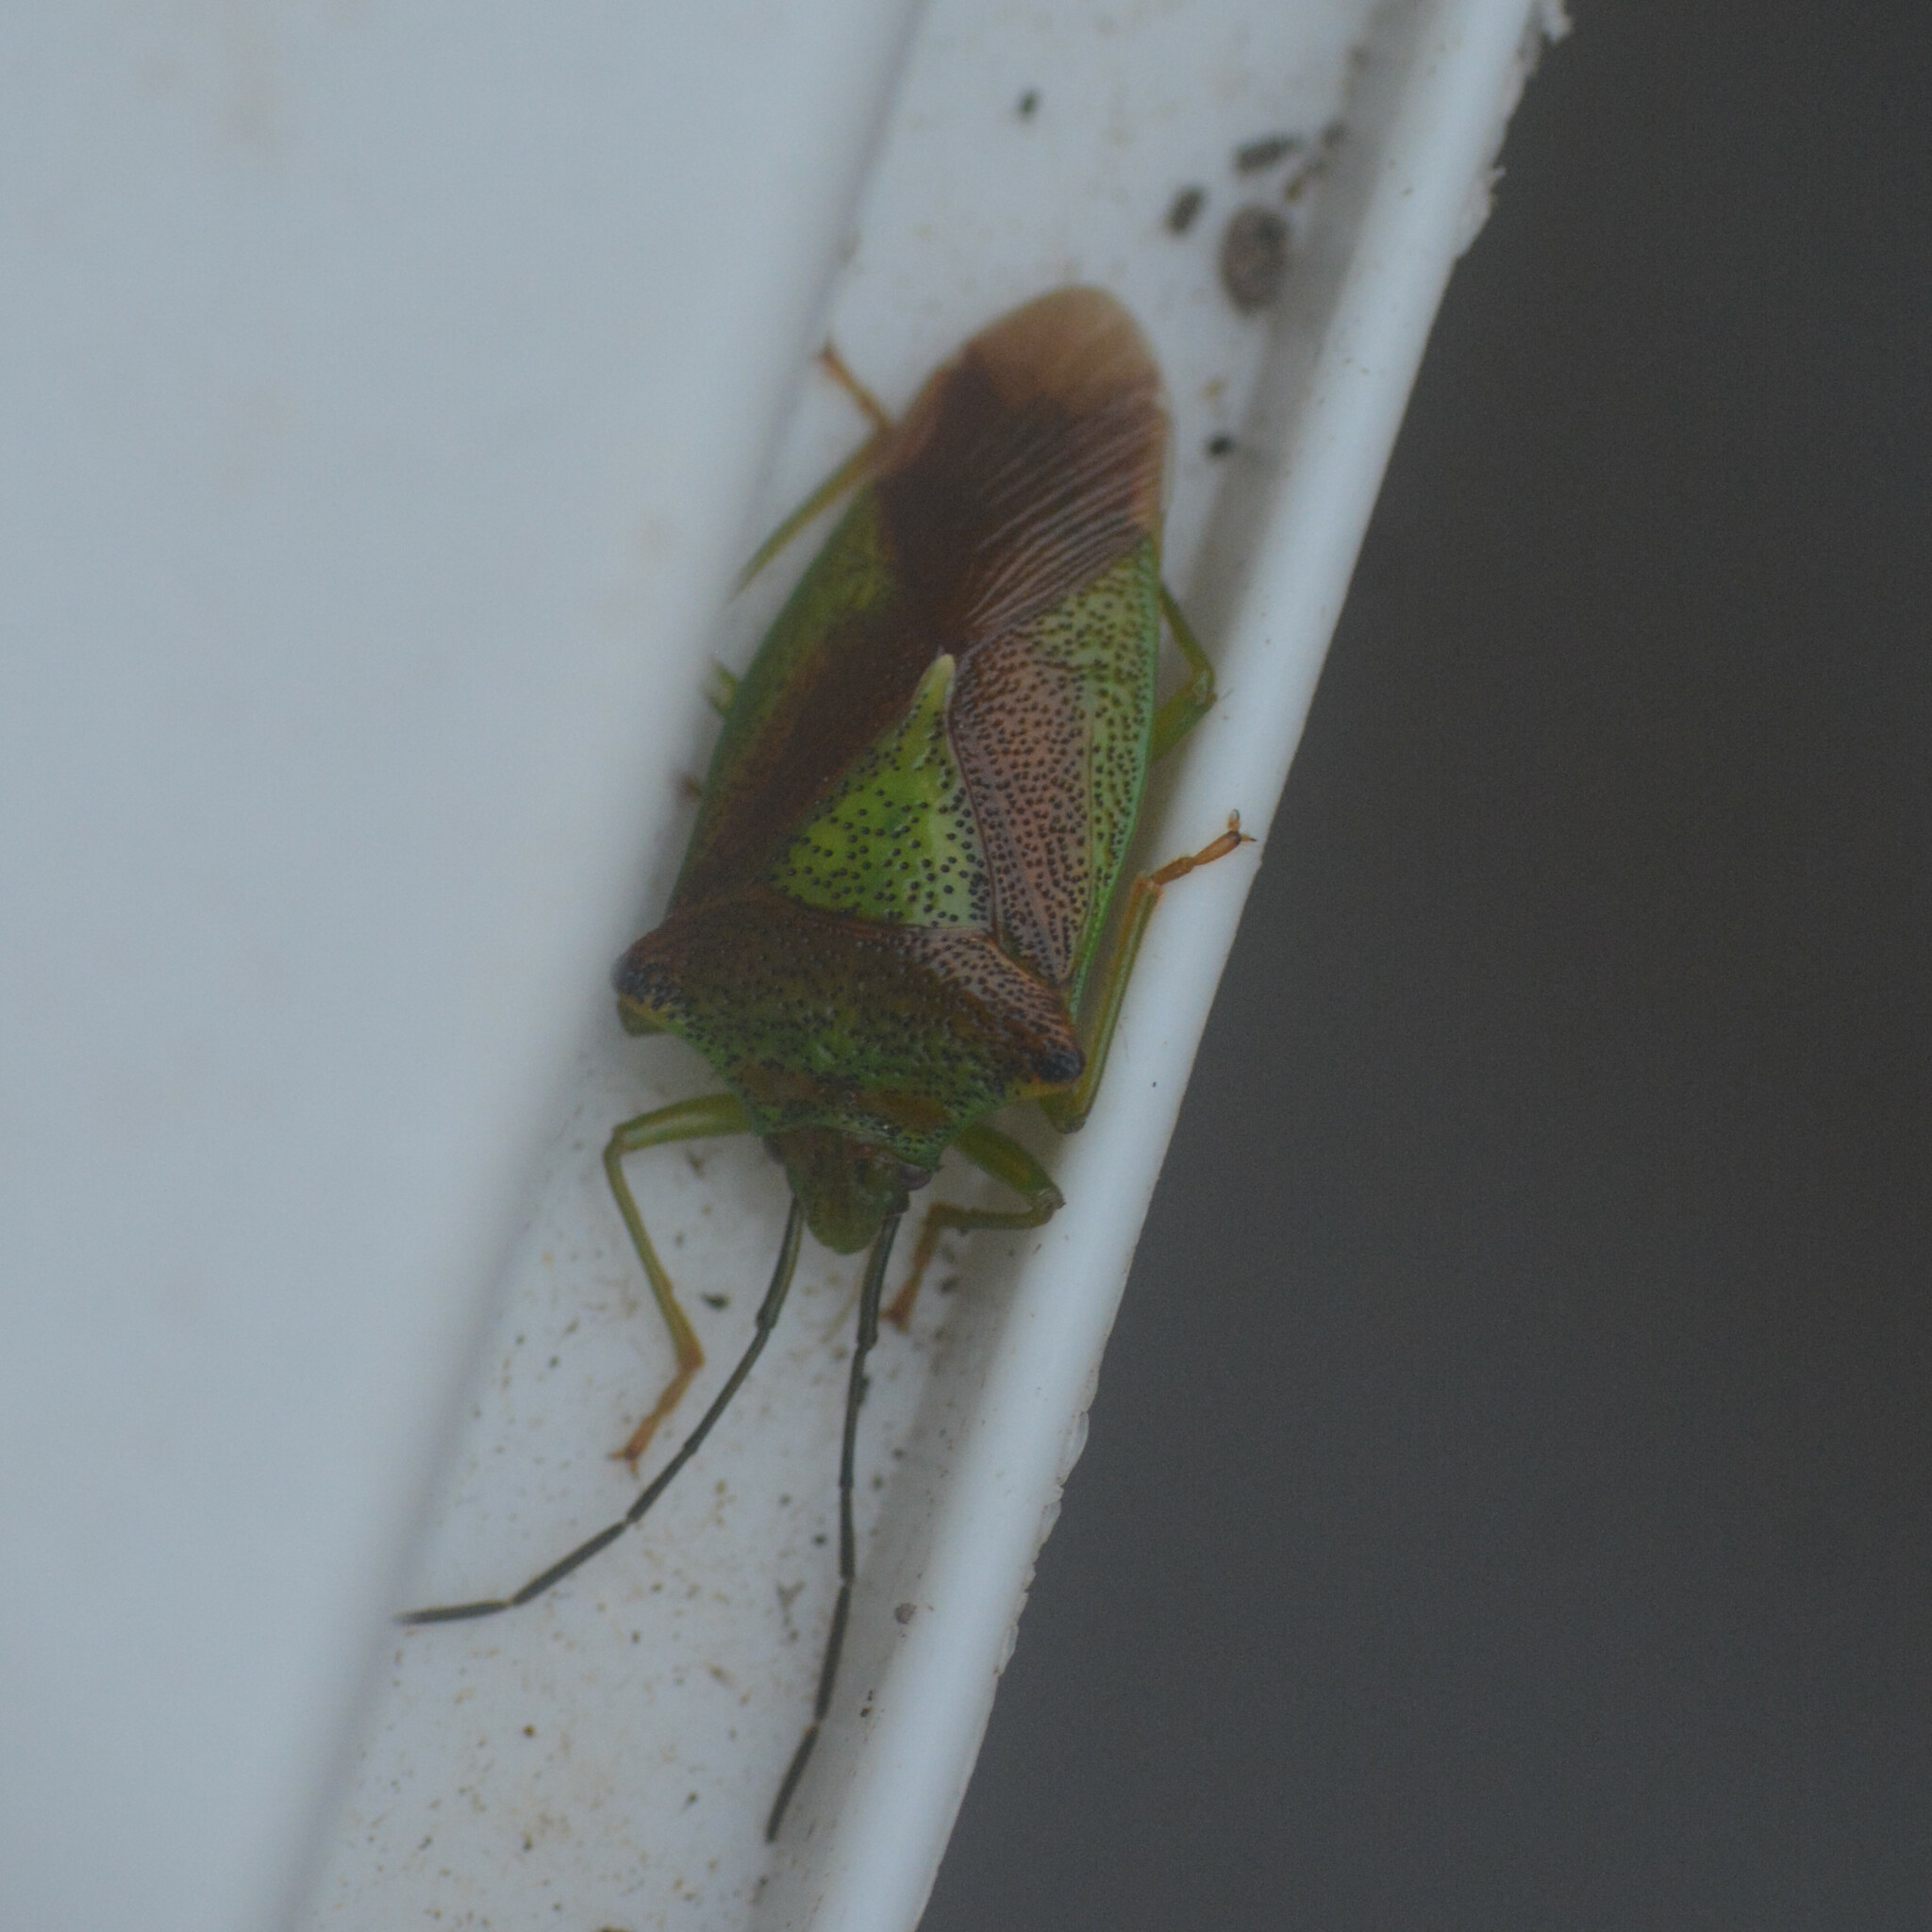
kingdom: Animalia
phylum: Arthropoda
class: Insecta
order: Hemiptera
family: Acanthosomatidae
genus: Acanthosoma
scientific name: Acanthosoma haemorrhoidale
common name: Hawthorn shieldbug
